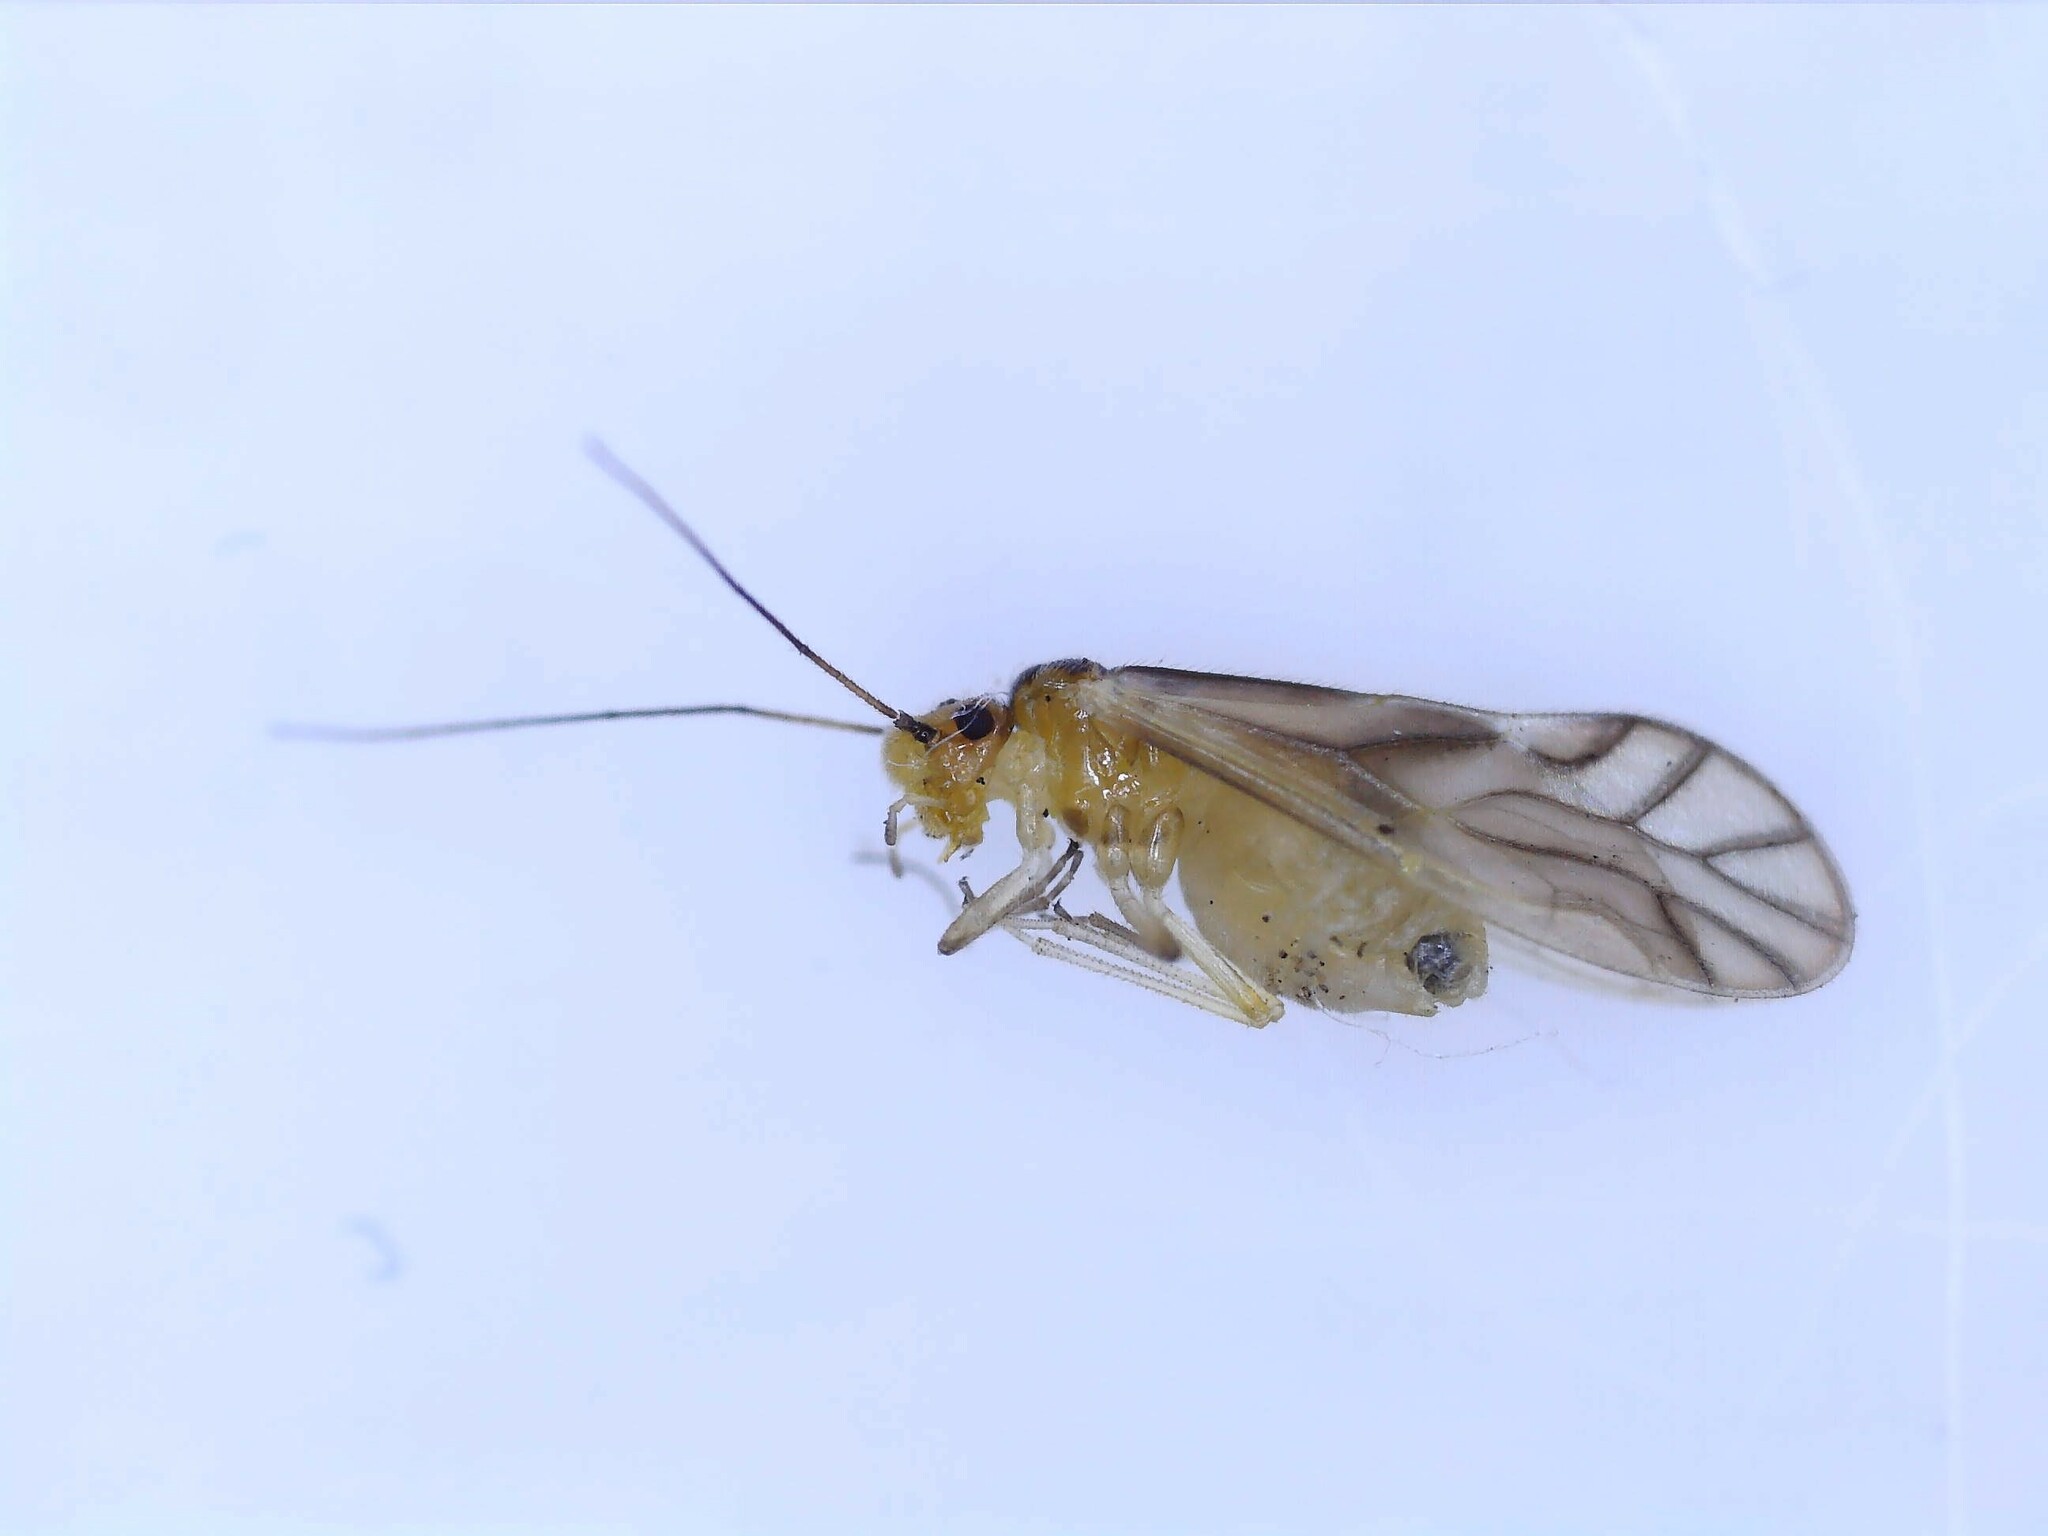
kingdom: Animalia
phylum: Arthropoda
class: Insecta
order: Psocodea
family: Caeciliusidae
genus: Valenzuela
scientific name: Valenzuela flavidus
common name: Yellow barklouse
